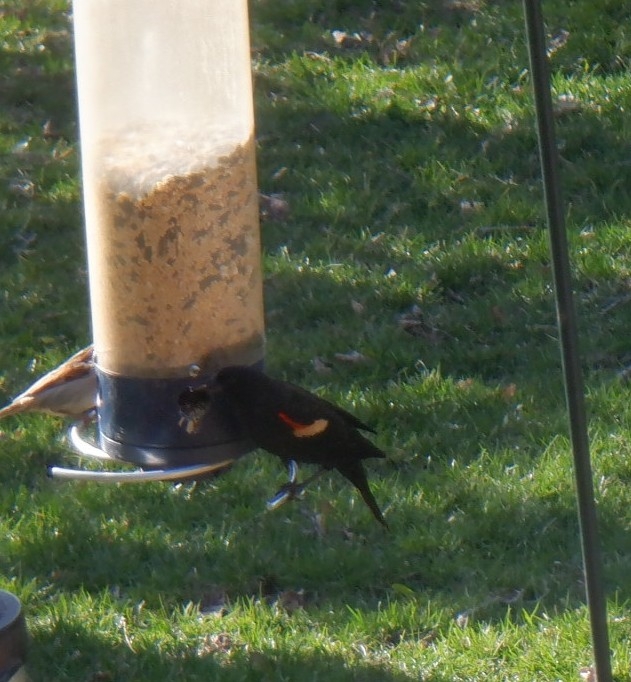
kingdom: Animalia
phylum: Chordata
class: Aves
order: Passeriformes
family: Icteridae
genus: Agelaius
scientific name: Agelaius phoeniceus
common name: Red-winged blackbird
